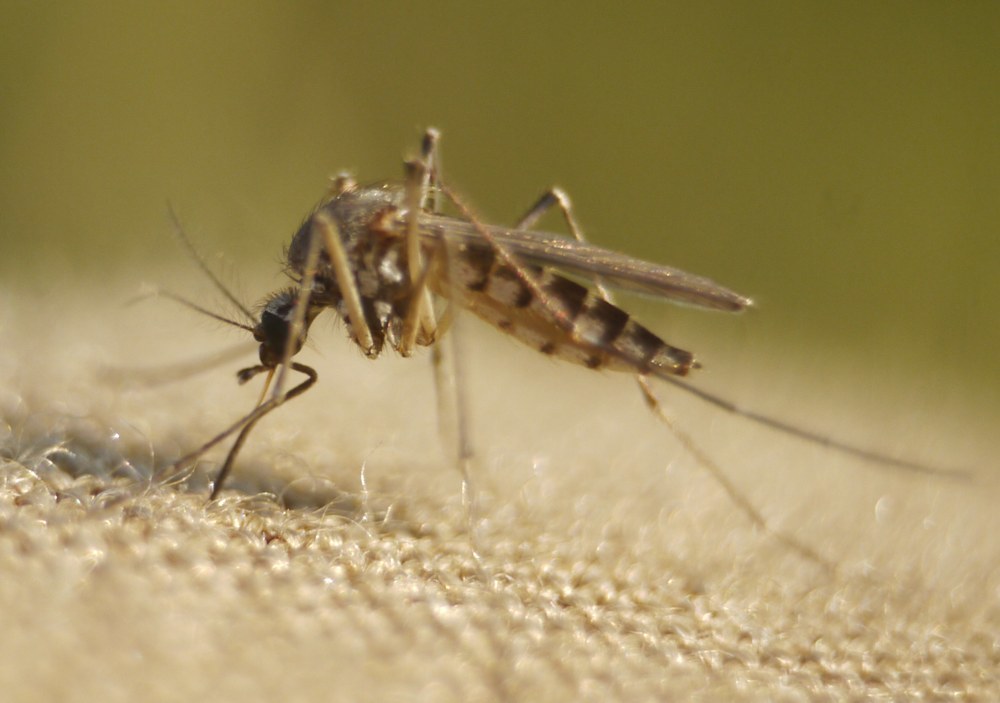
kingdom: Animalia
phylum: Arthropoda
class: Insecta
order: Diptera
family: Culicidae
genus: Aedes
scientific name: Aedes vexans
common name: Inland floodwater mosquito
